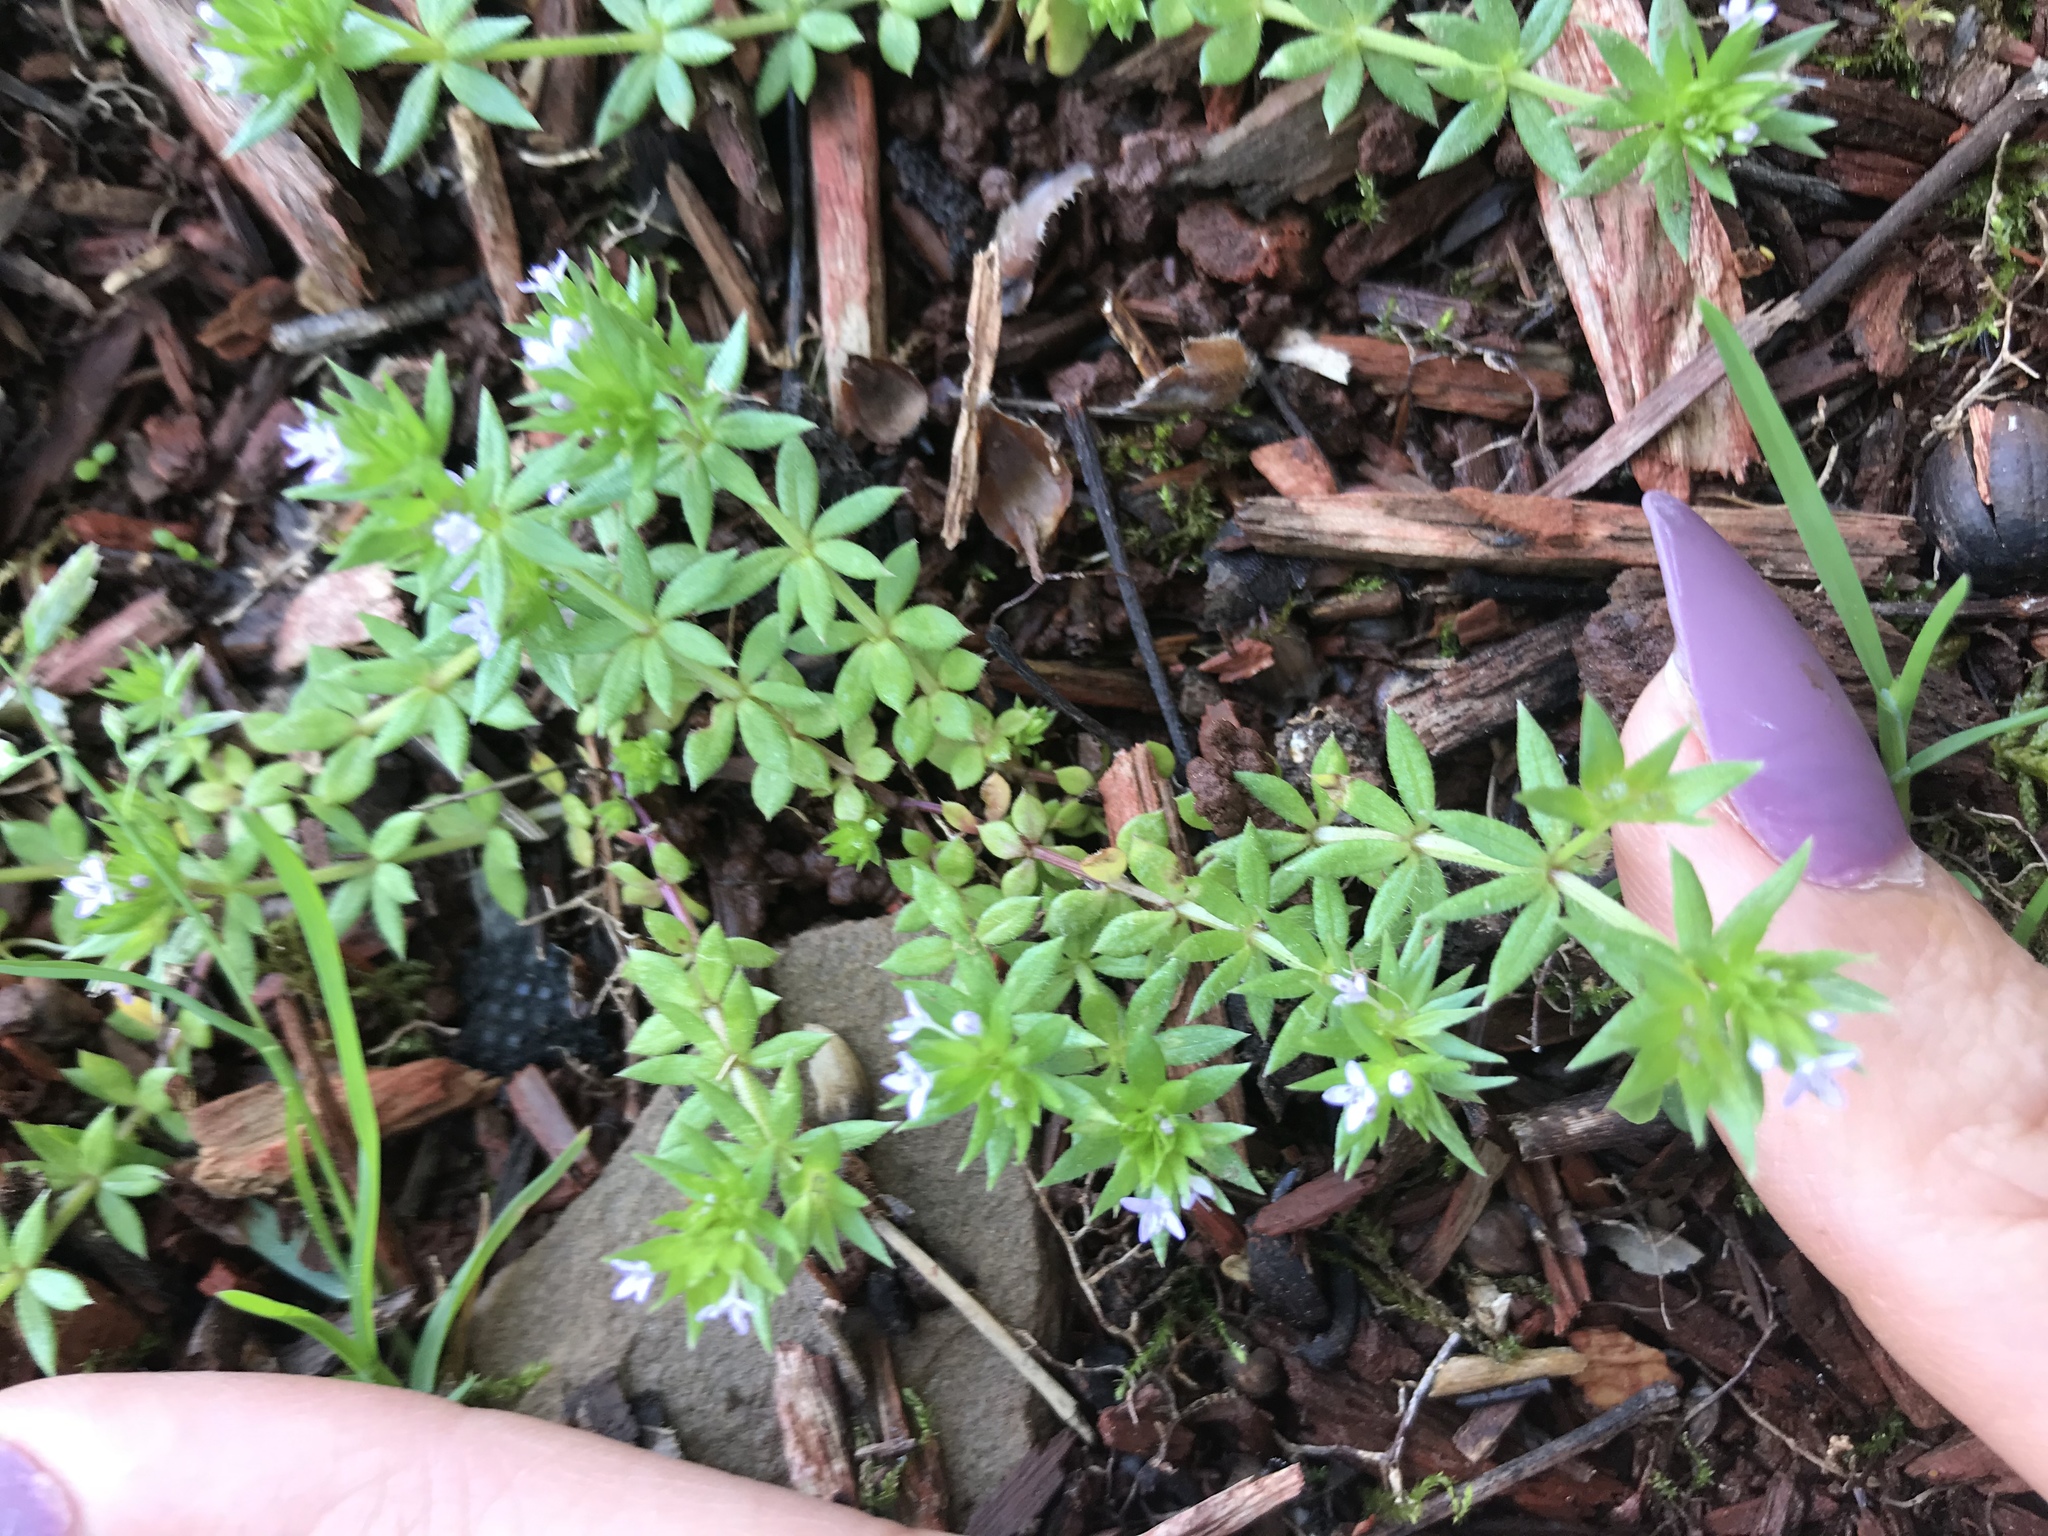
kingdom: Plantae
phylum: Tracheophyta
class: Magnoliopsida
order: Gentianales
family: Rubiaceae
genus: Sherardia
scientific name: Sherardia arvensis
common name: Field madder
